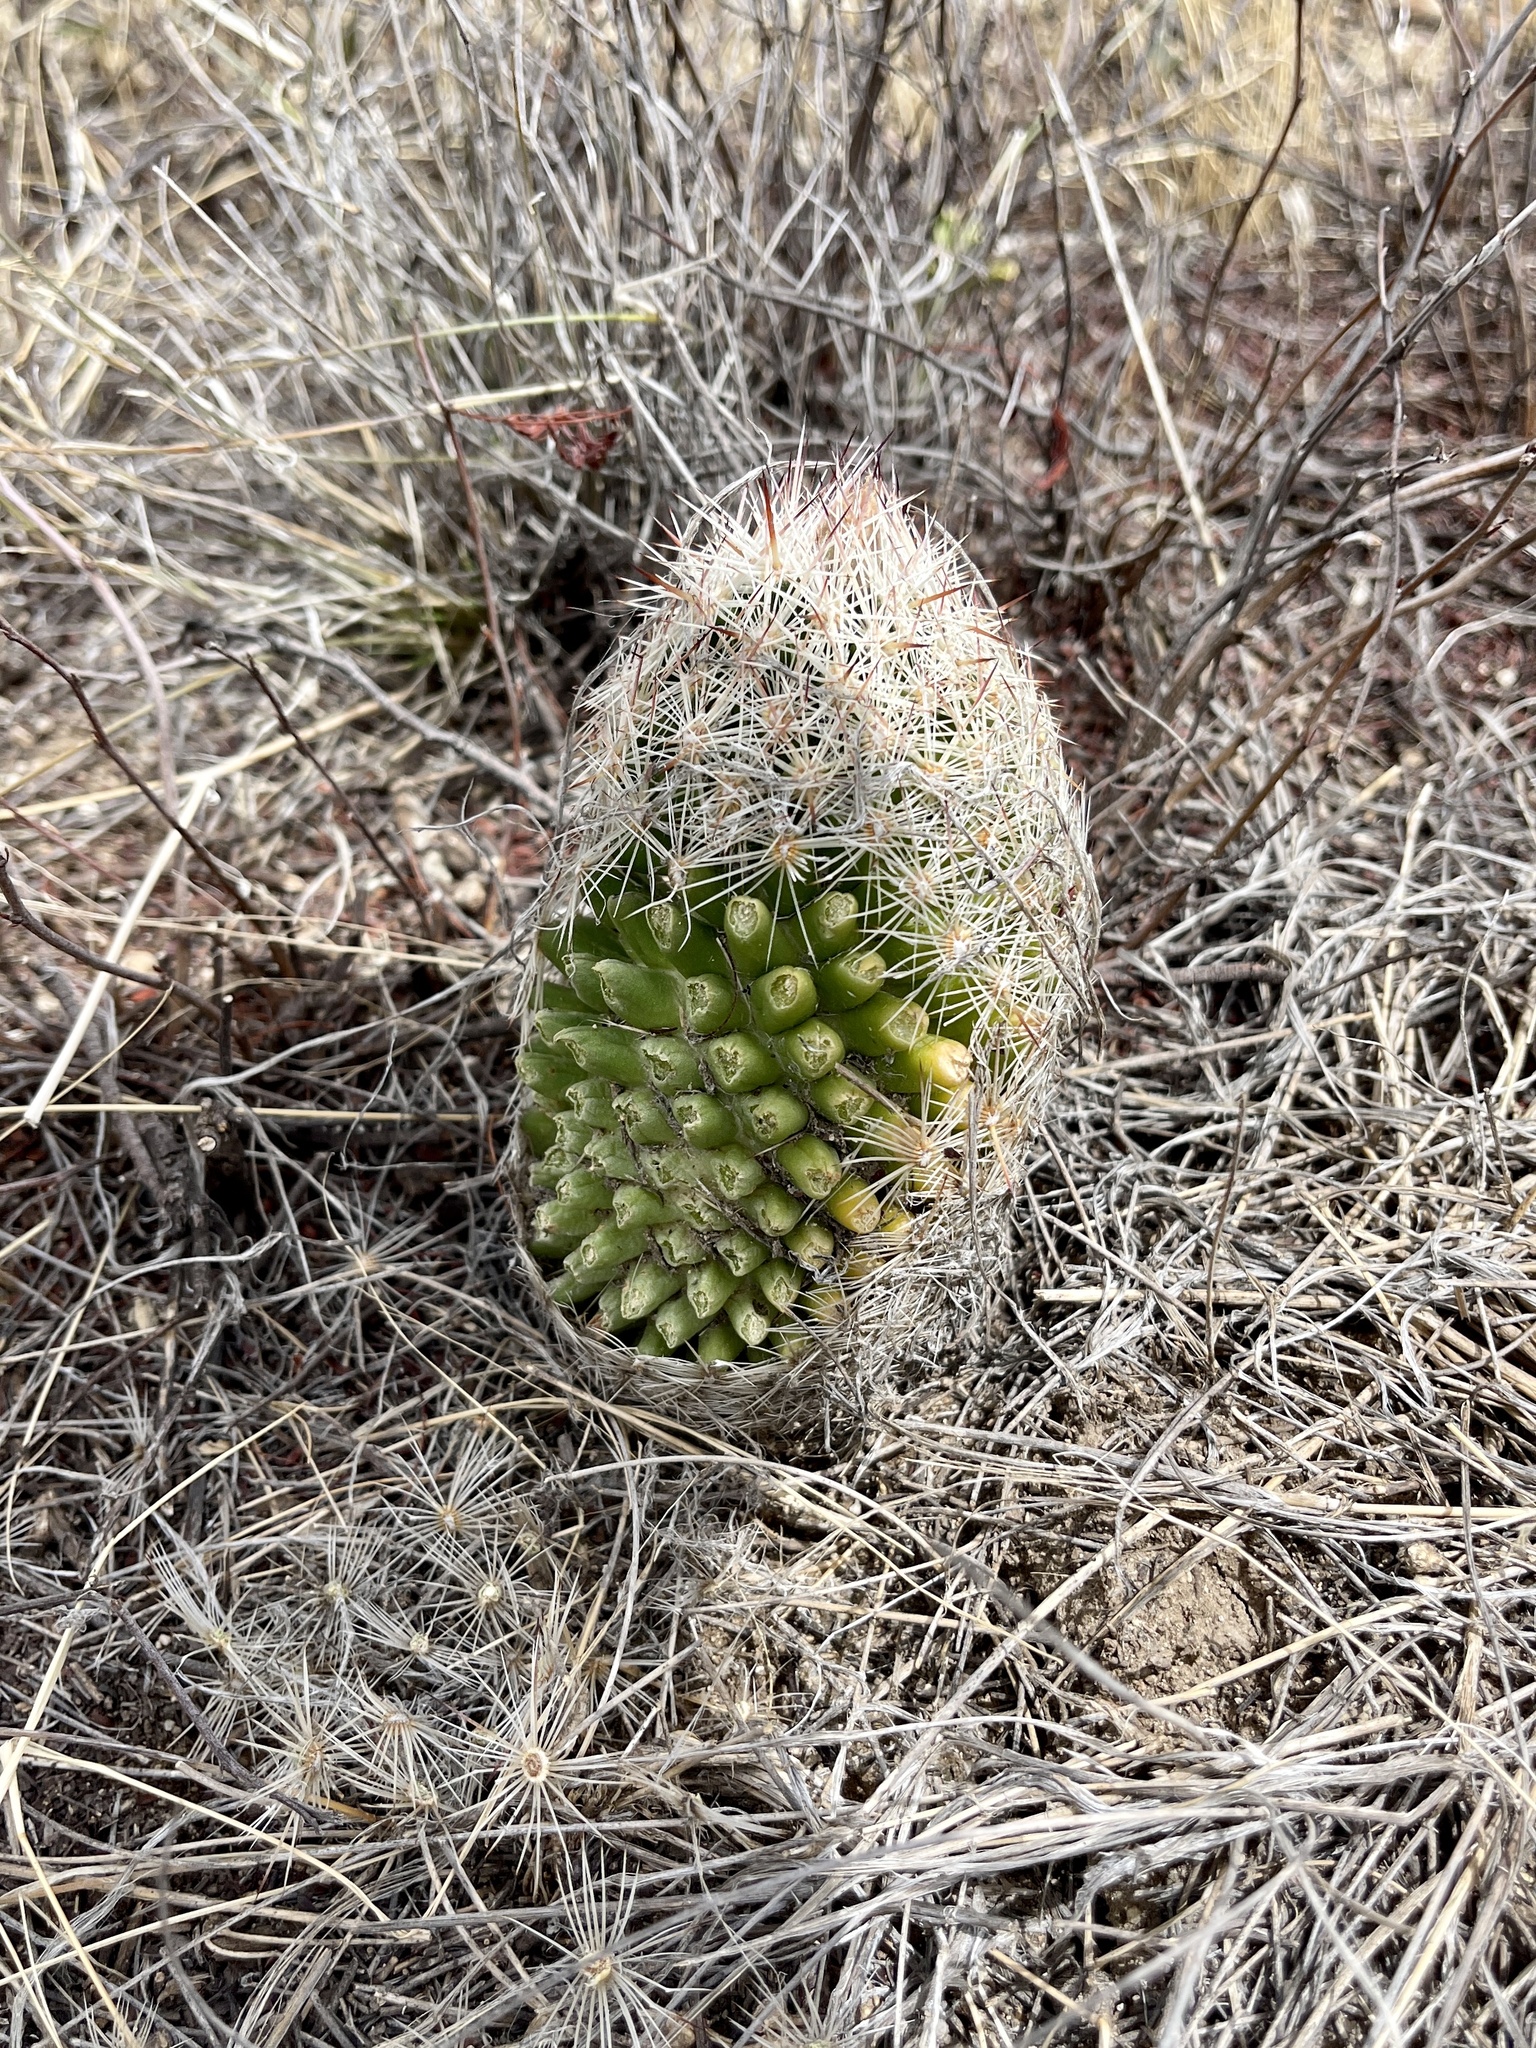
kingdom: Plantae
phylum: Tracheophyta
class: Magnoliopsida
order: Caryophyllales
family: Cactaceae
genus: Pelecyphora
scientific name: Pelecyphora vivipara
